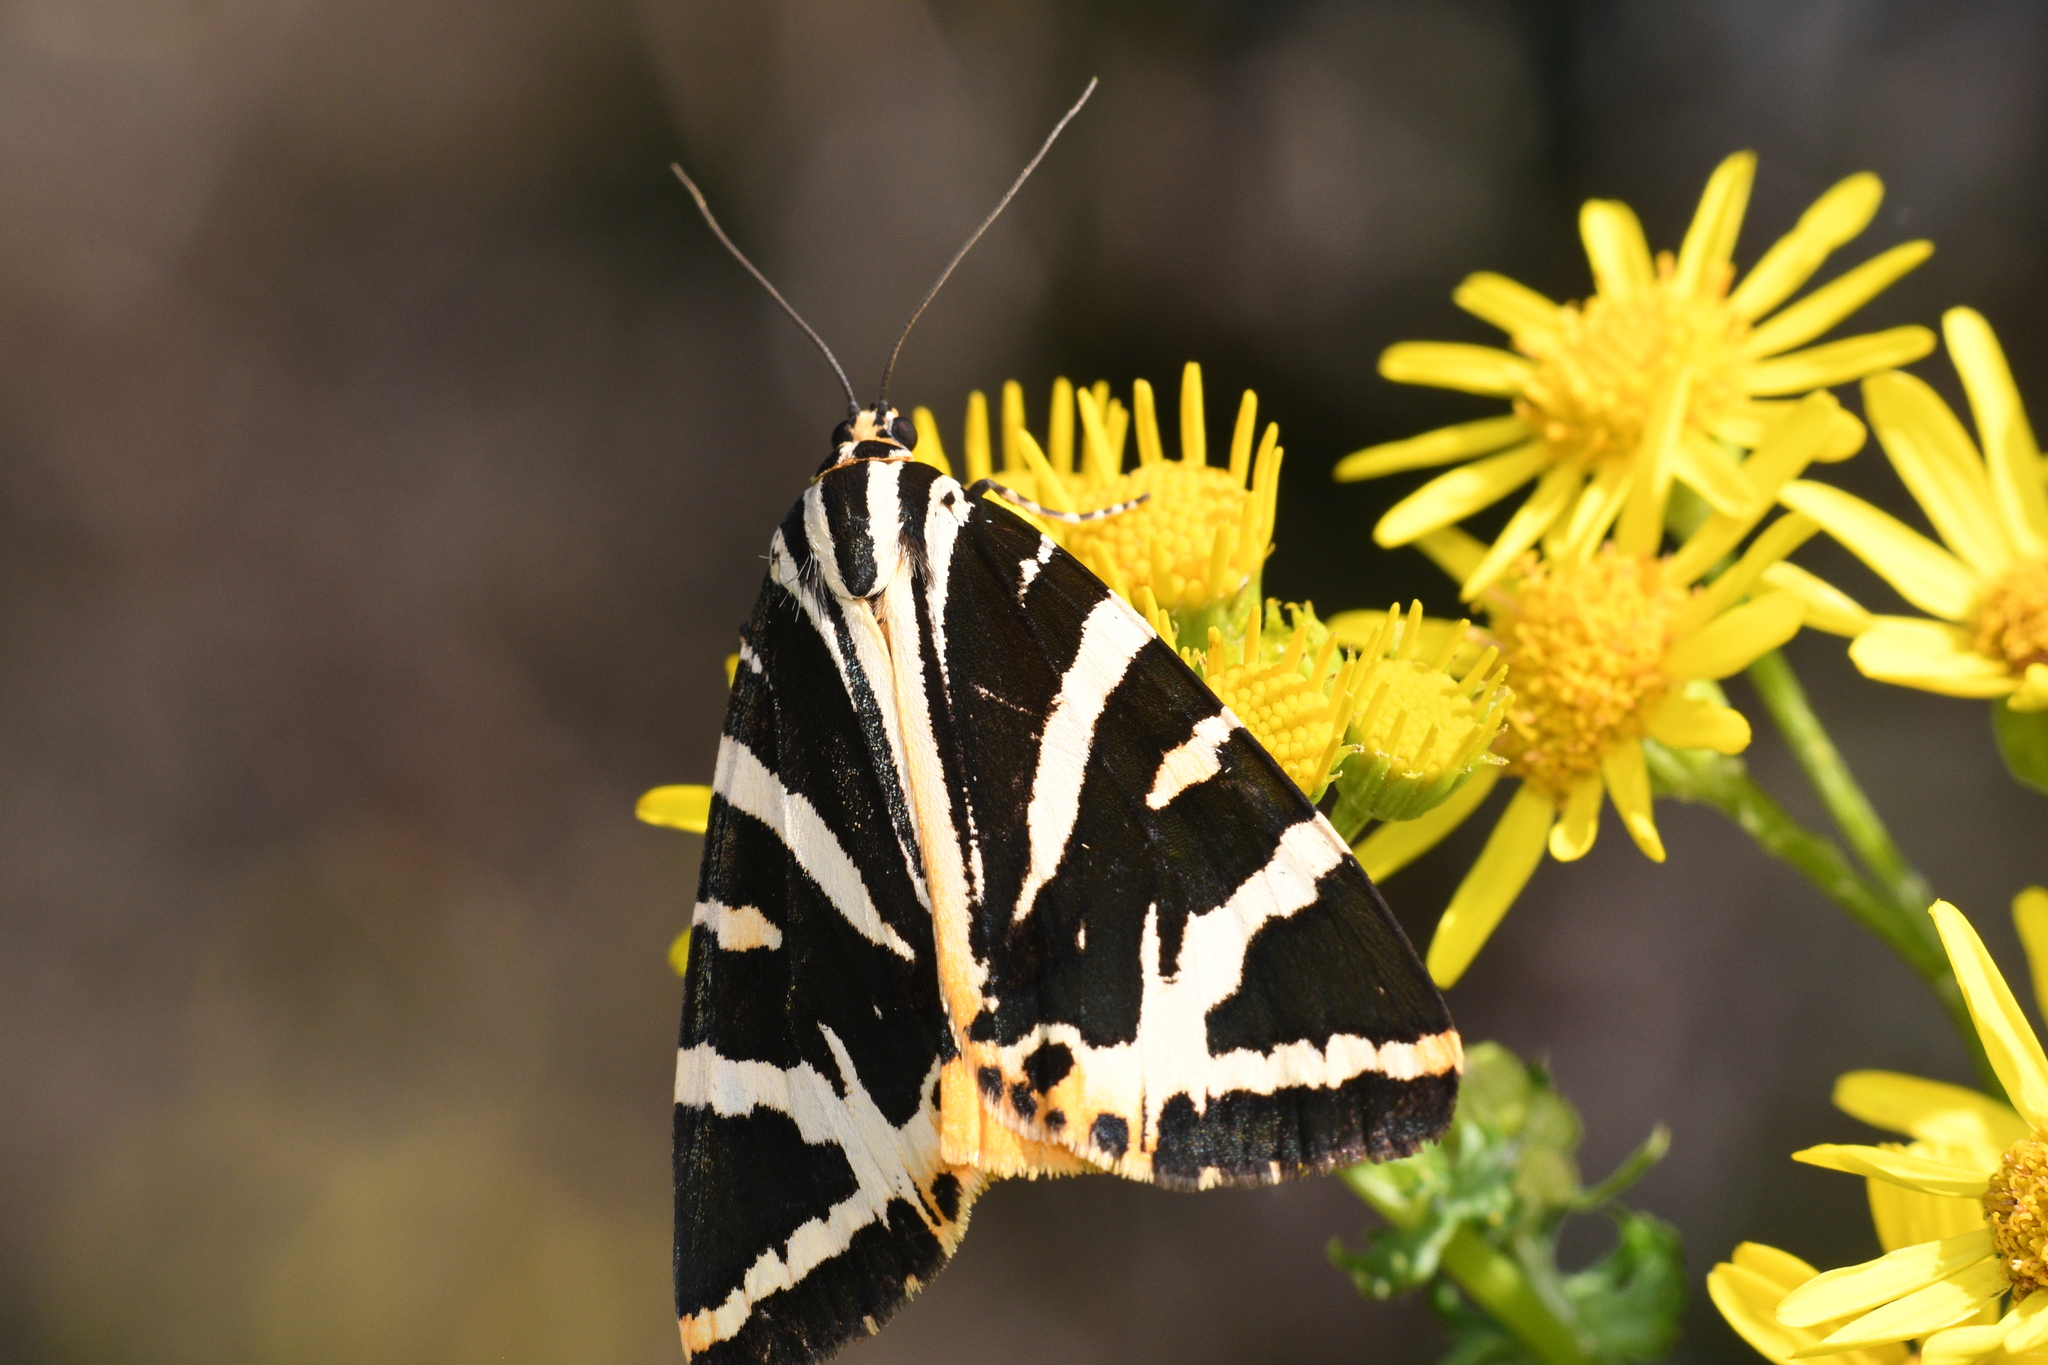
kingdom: Animalia
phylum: Arthropoda
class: Insecta
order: Lepidoptera
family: Erebidae
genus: Euplagia
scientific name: Euplagia quadripunctaria
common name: Jersey tiger
